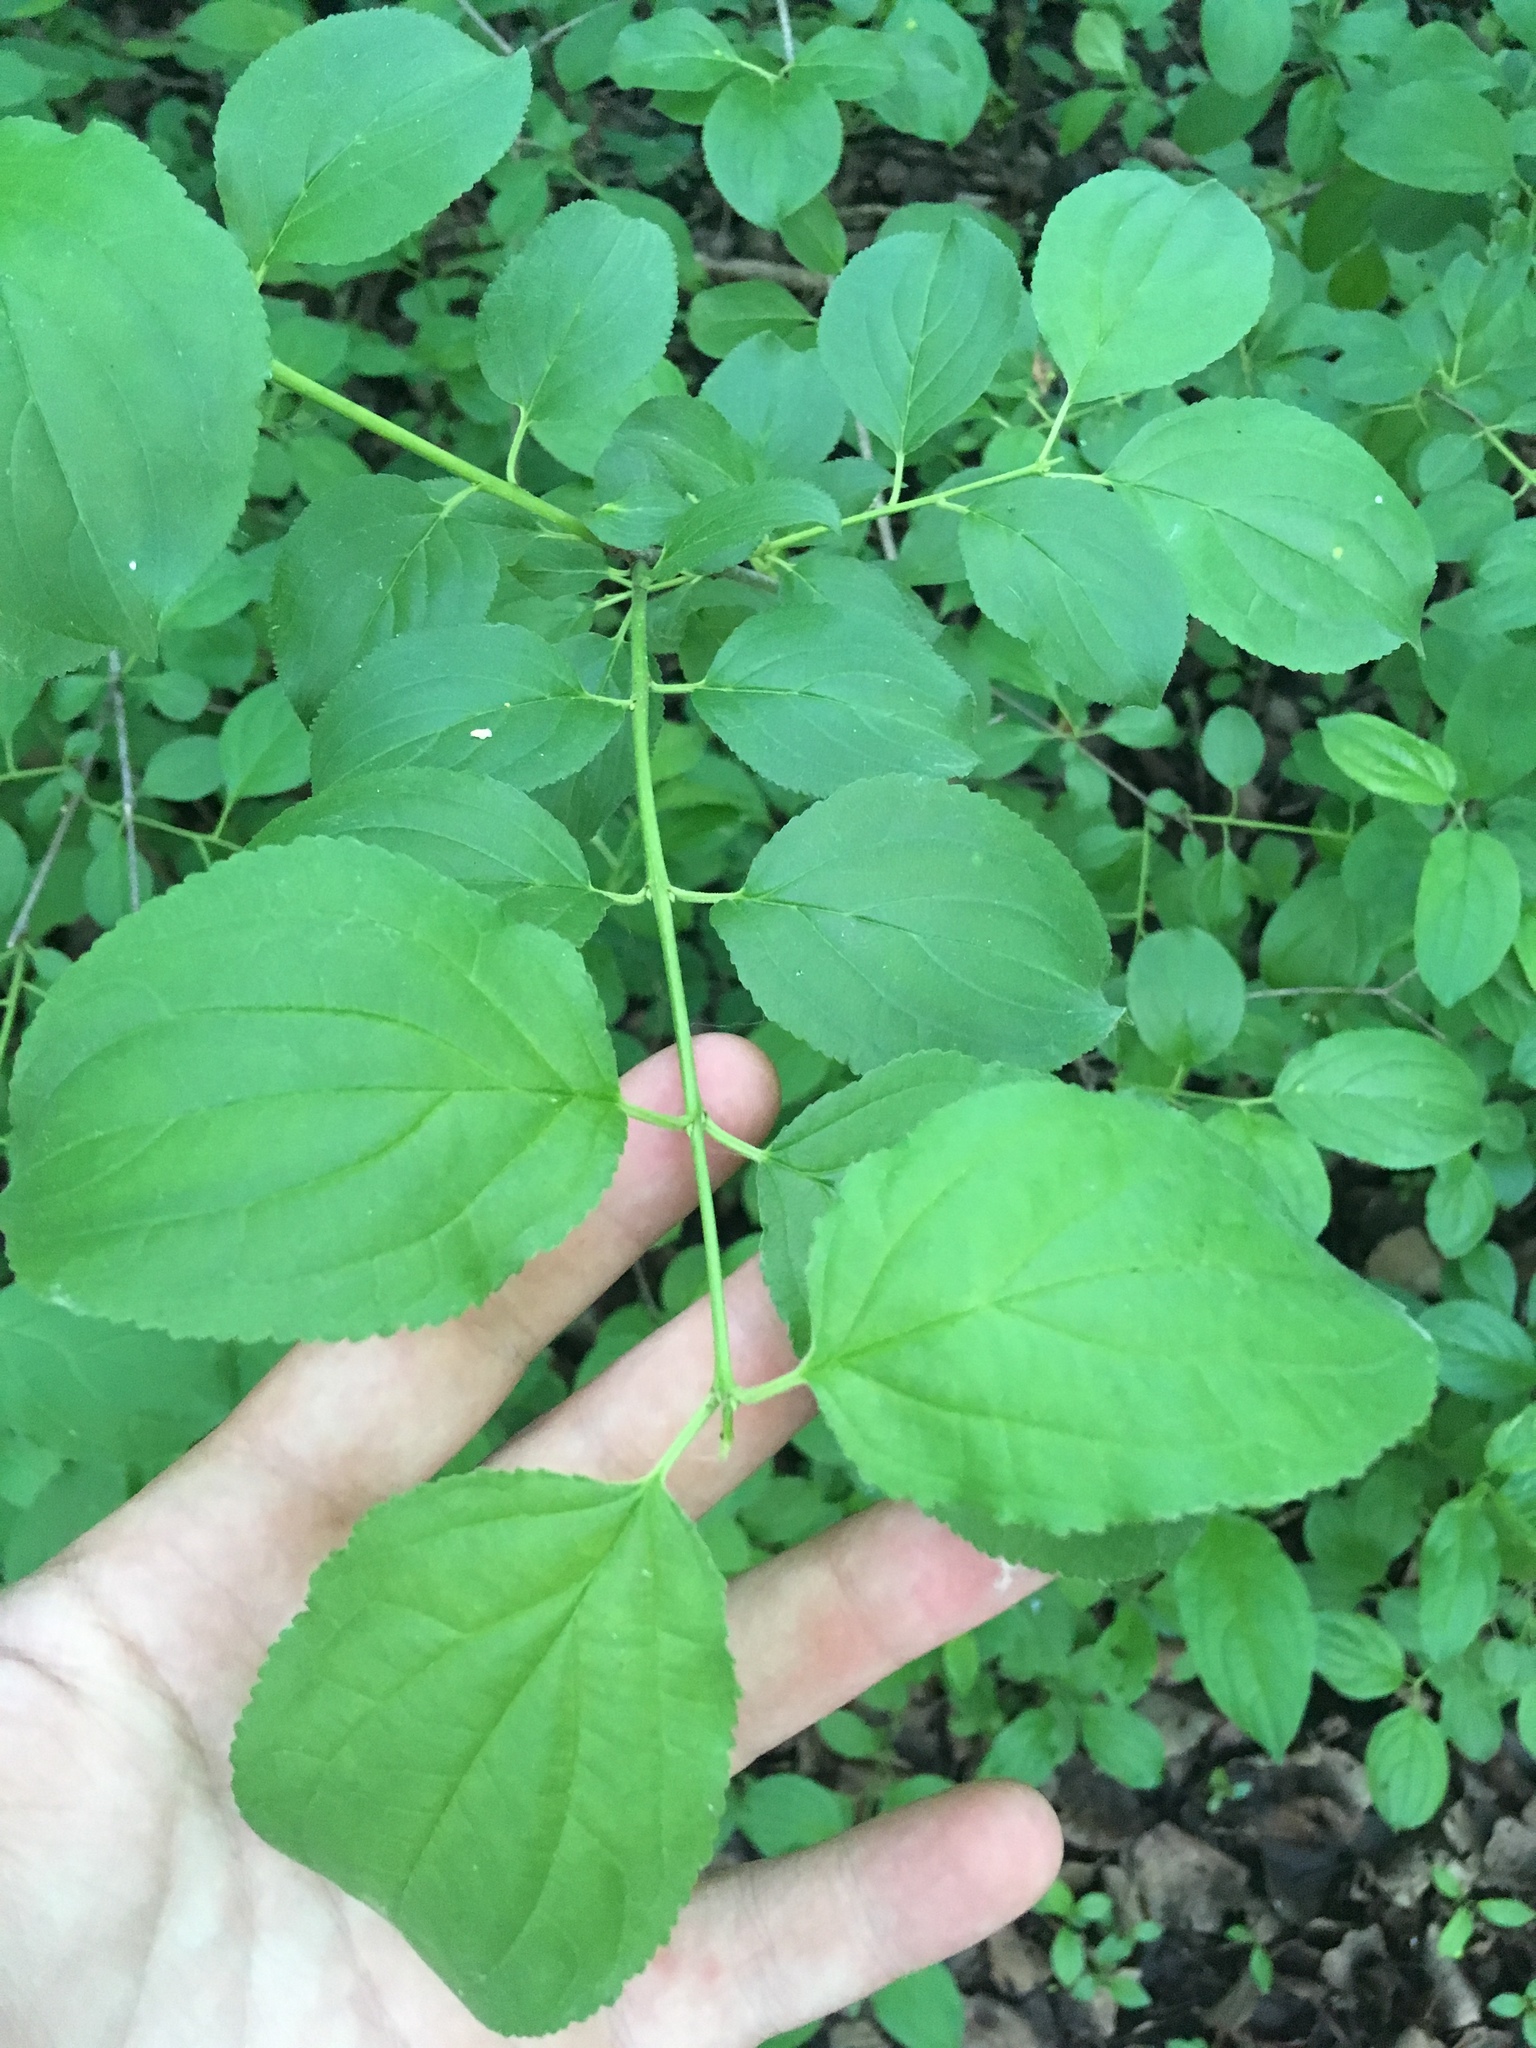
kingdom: Plantae
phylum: Tracheophyta
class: Magnoliopsida
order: Rosales
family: Rhamnaceae
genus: Rhamnus
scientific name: Rhamnus cathartica
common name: Common buckthorn
